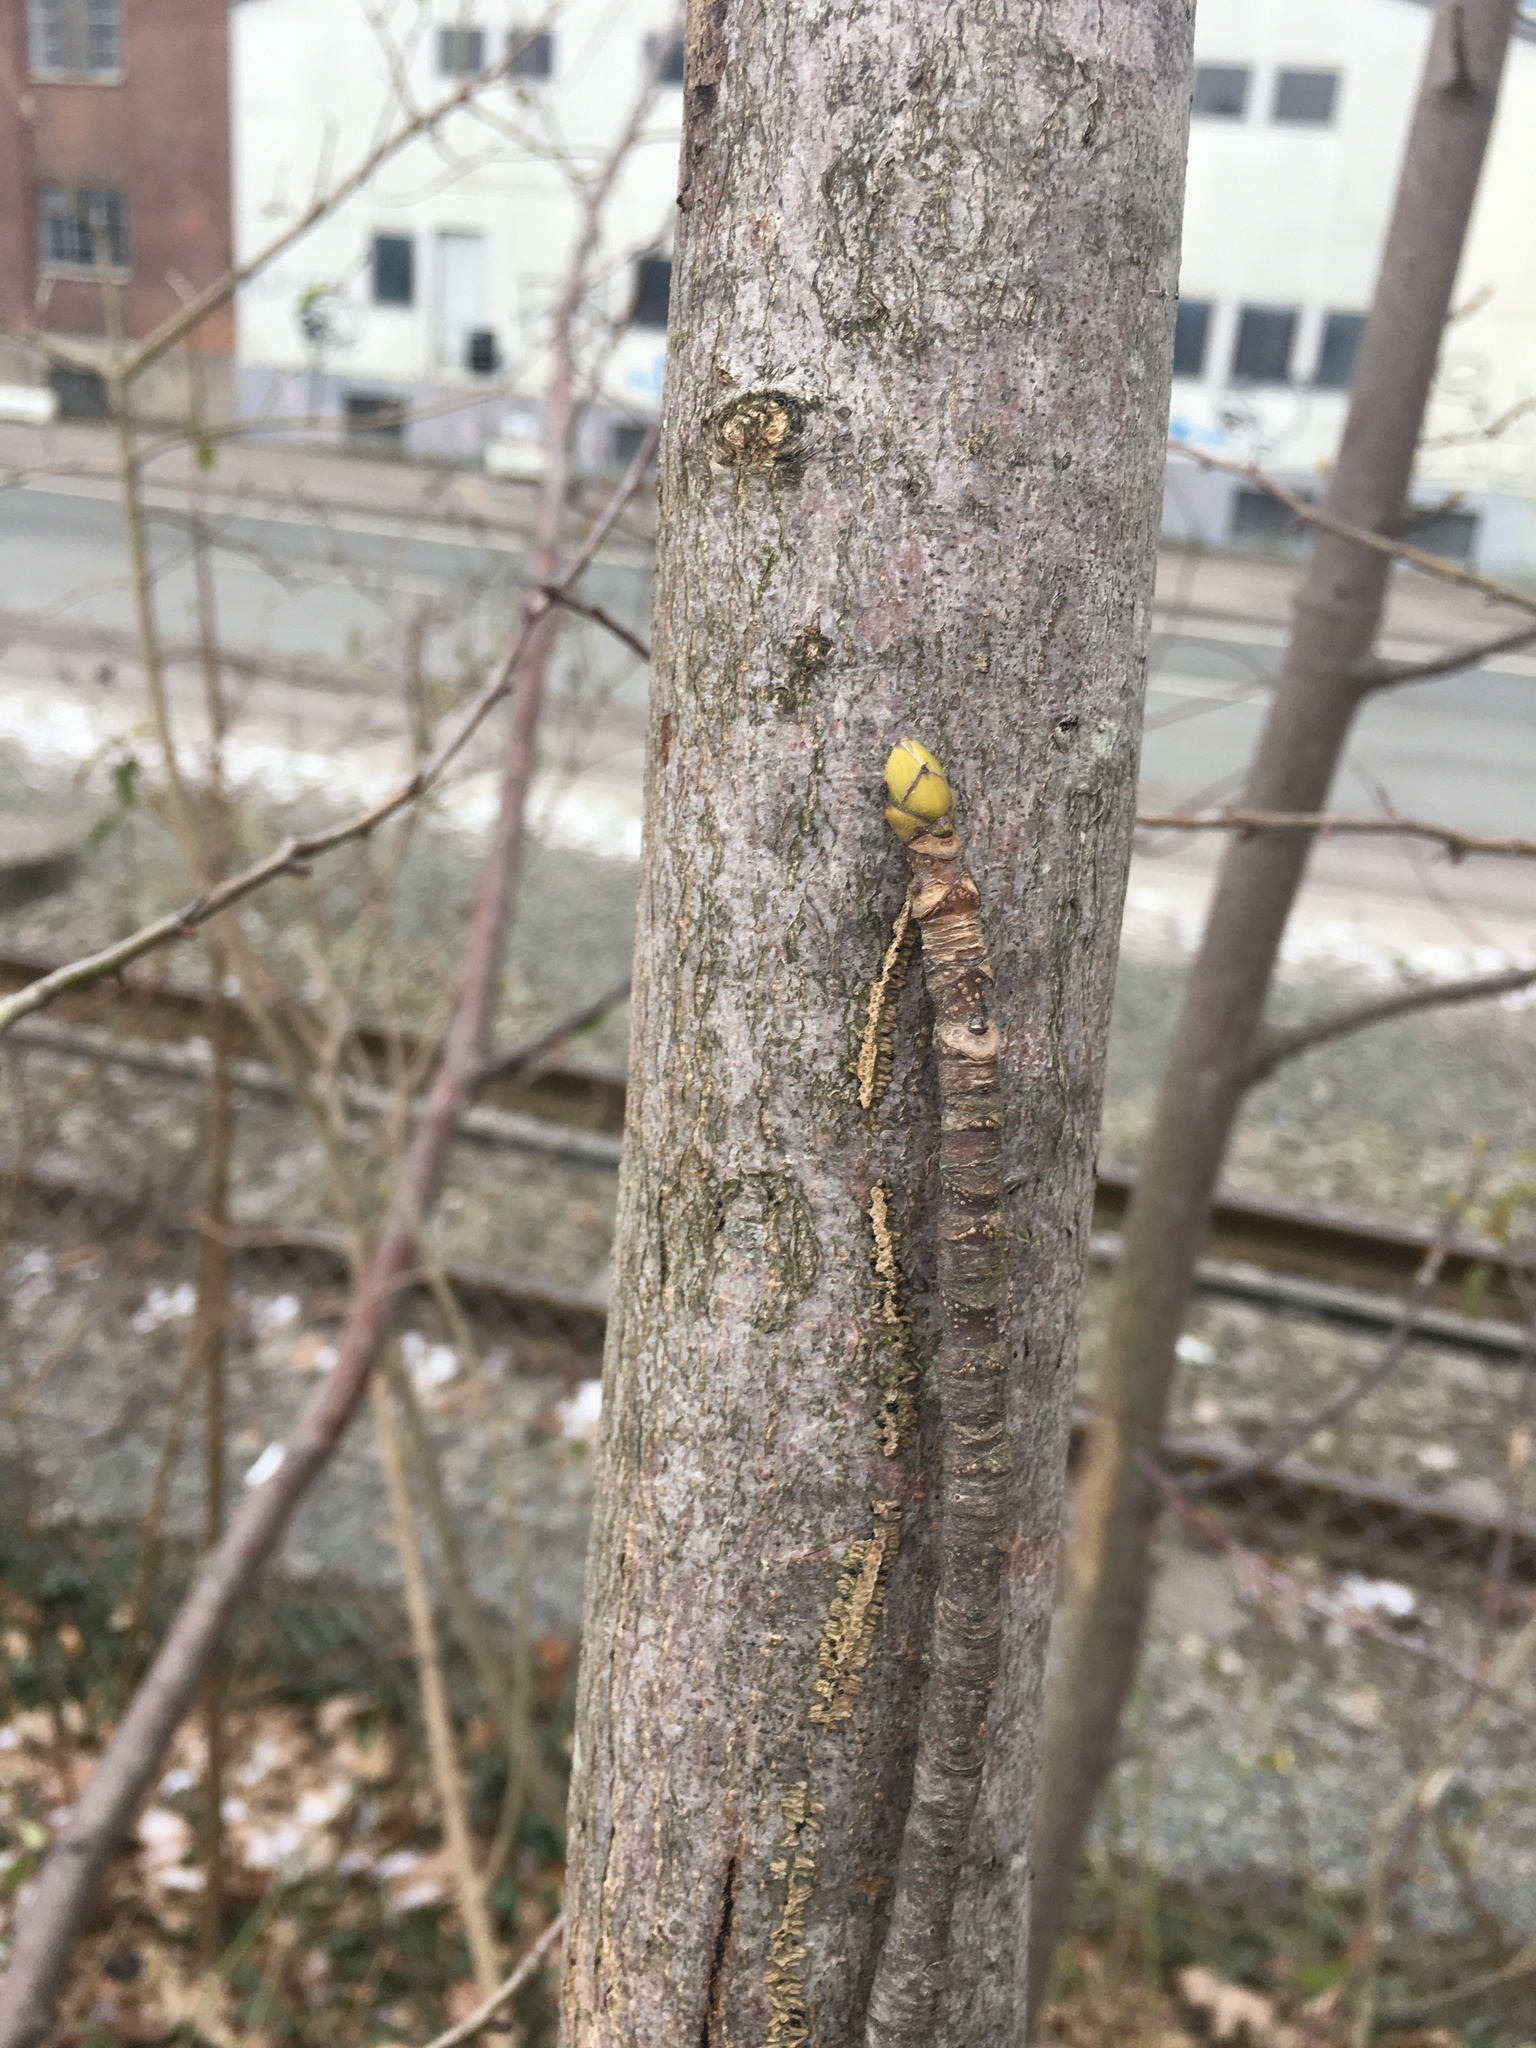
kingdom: Plantae
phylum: Tracheophyta
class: Magnoliopsida
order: Sapindales
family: Sapindaceae
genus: Acer
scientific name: Acer pseudoplatanus
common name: Sycamore
